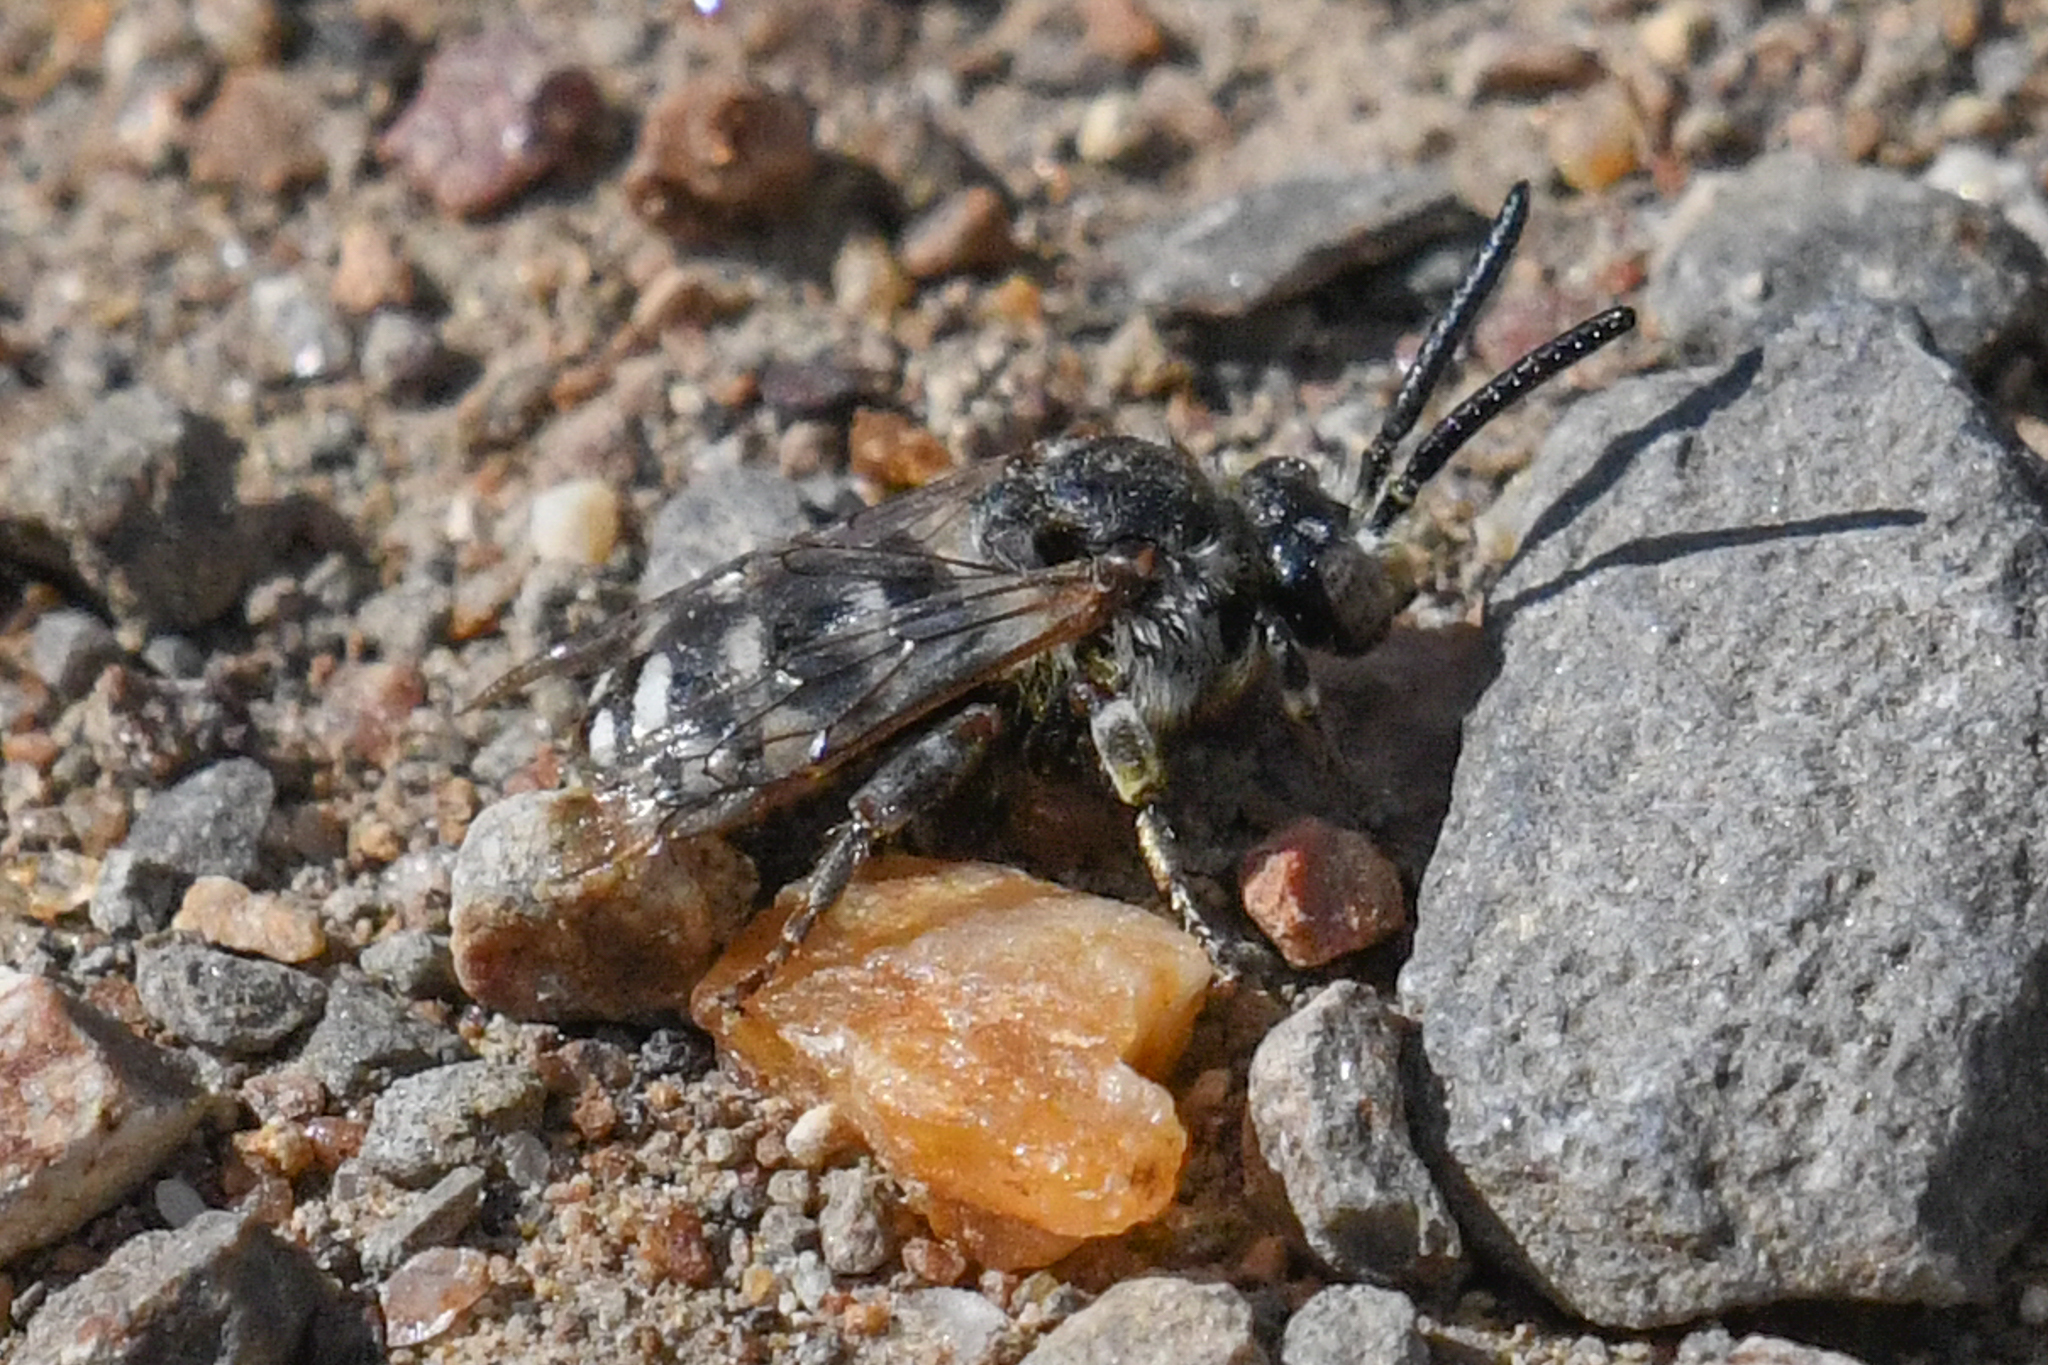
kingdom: Animalia
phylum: Arthropoda
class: Insecta
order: Hymenoptera
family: Apidae
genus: Brachymelecta
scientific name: Brachymelecta californica
